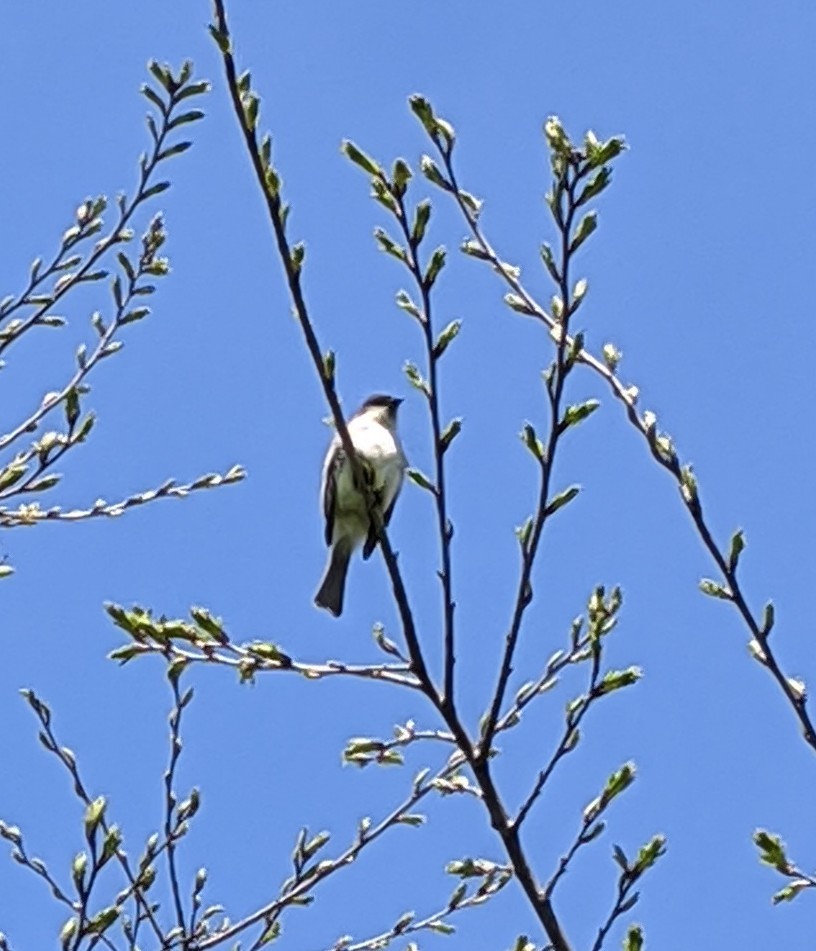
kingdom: Animalia
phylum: Chordata
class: Aves
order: Passeriformes
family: Tyrannidae
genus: Sayornis
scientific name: Sayornis phoebe
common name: Eastern phoebe
